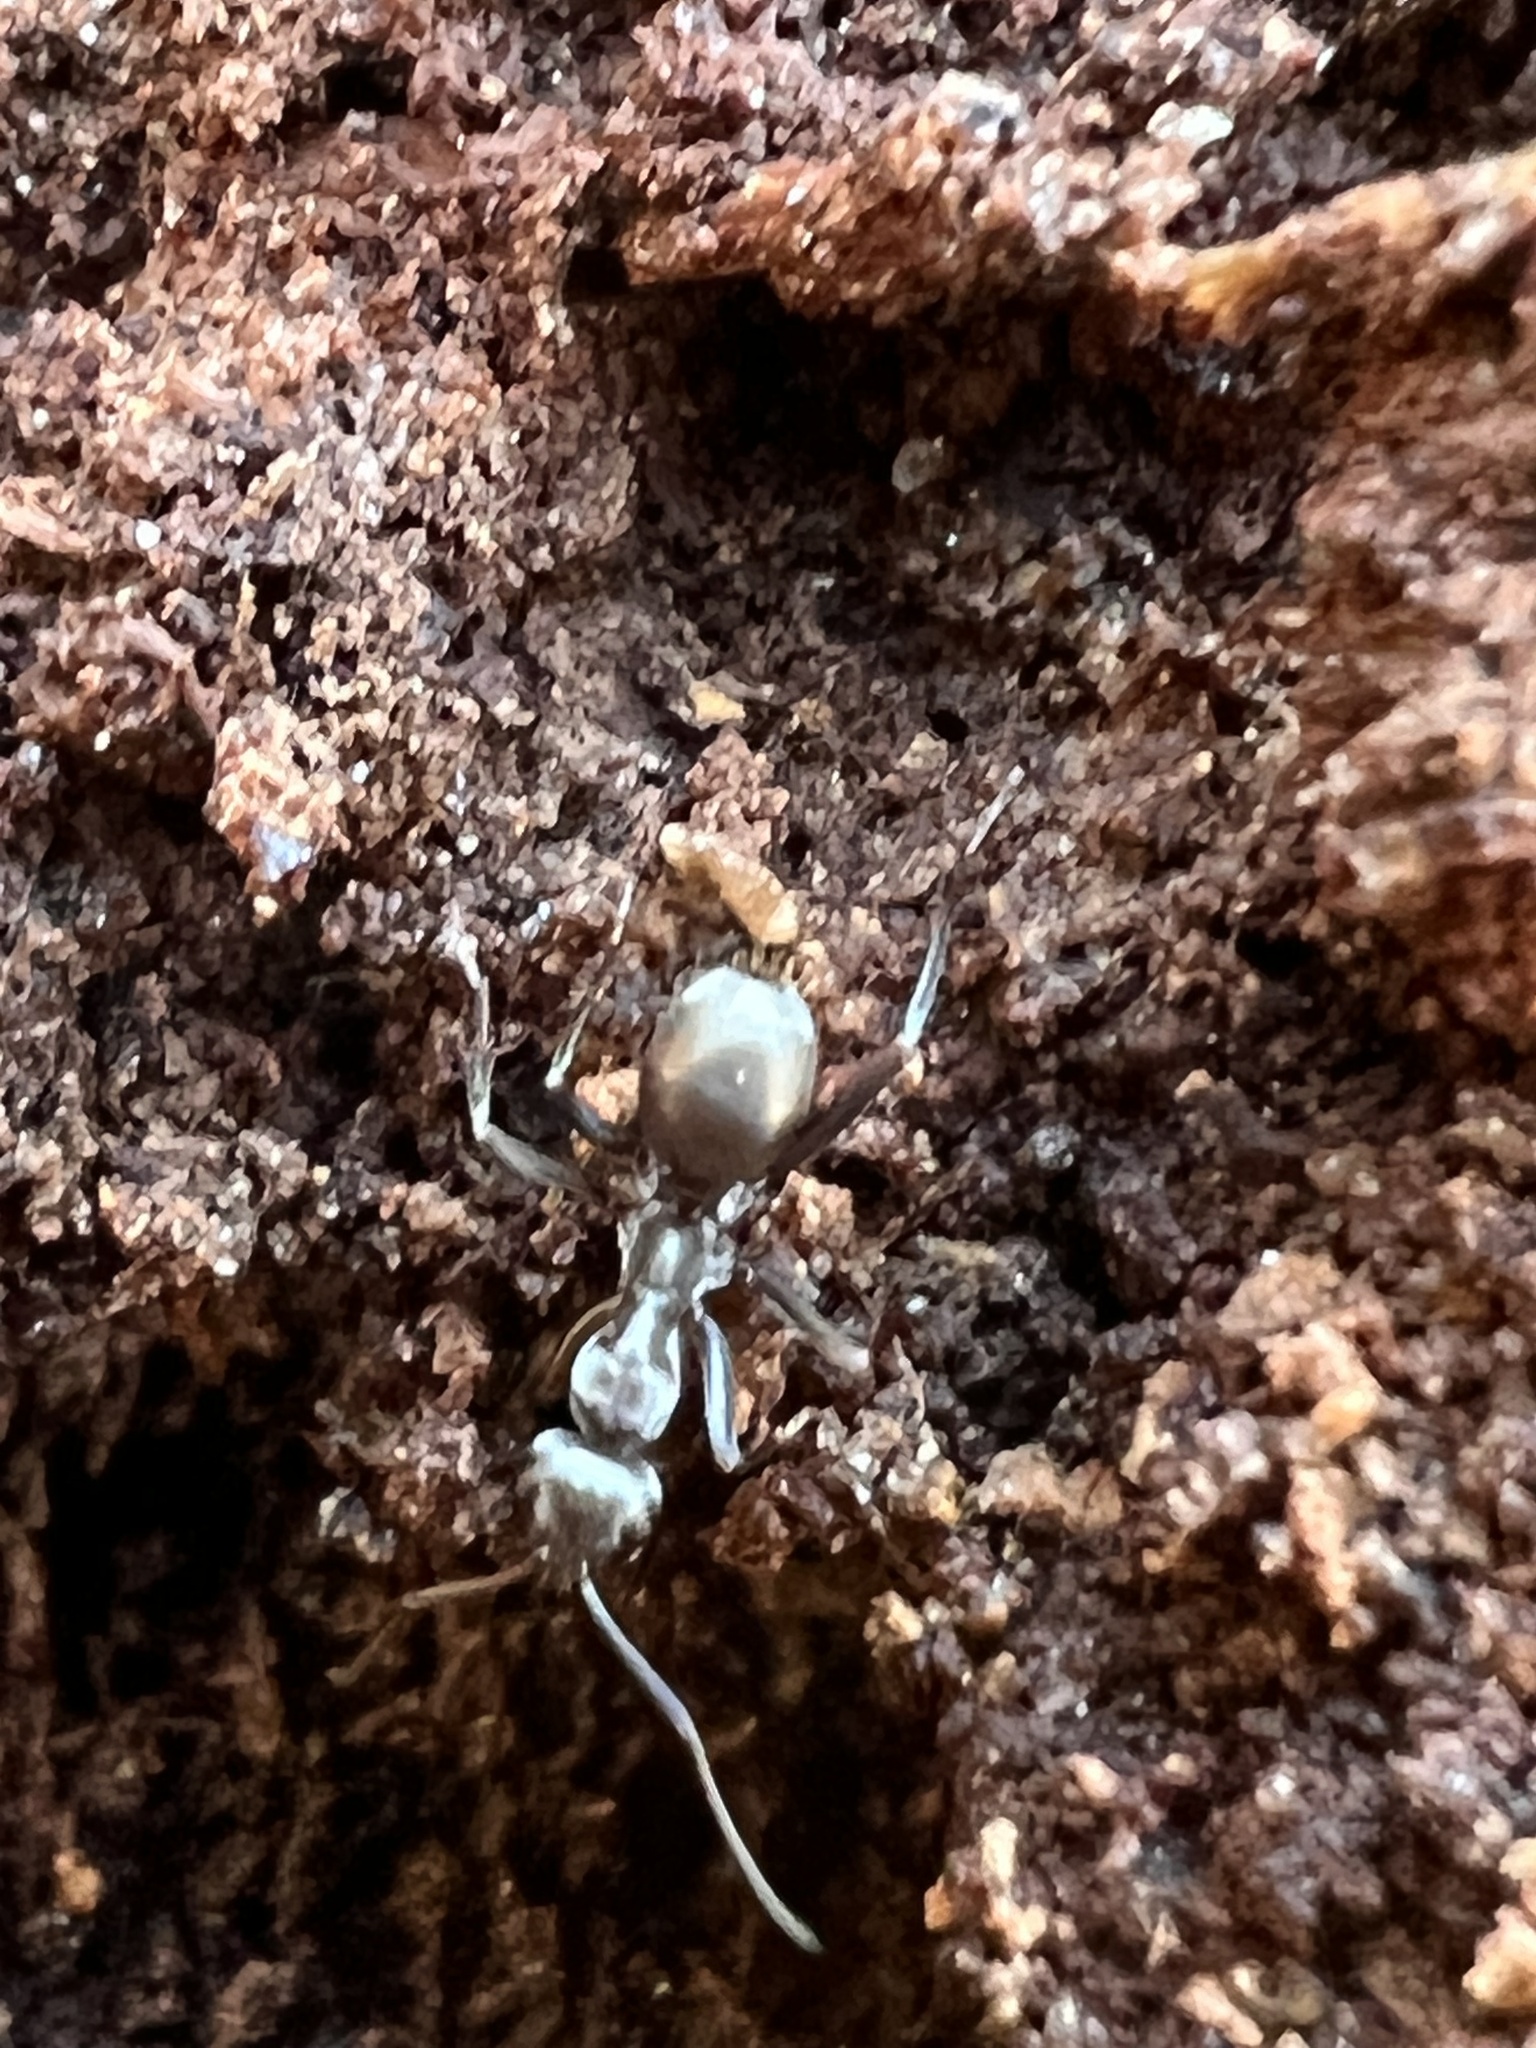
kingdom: Animalia
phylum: Arthropoda
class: Insecta
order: Hymenoptera
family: Formicidae
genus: Formica
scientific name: Formica subsericea
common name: Silky field ant
